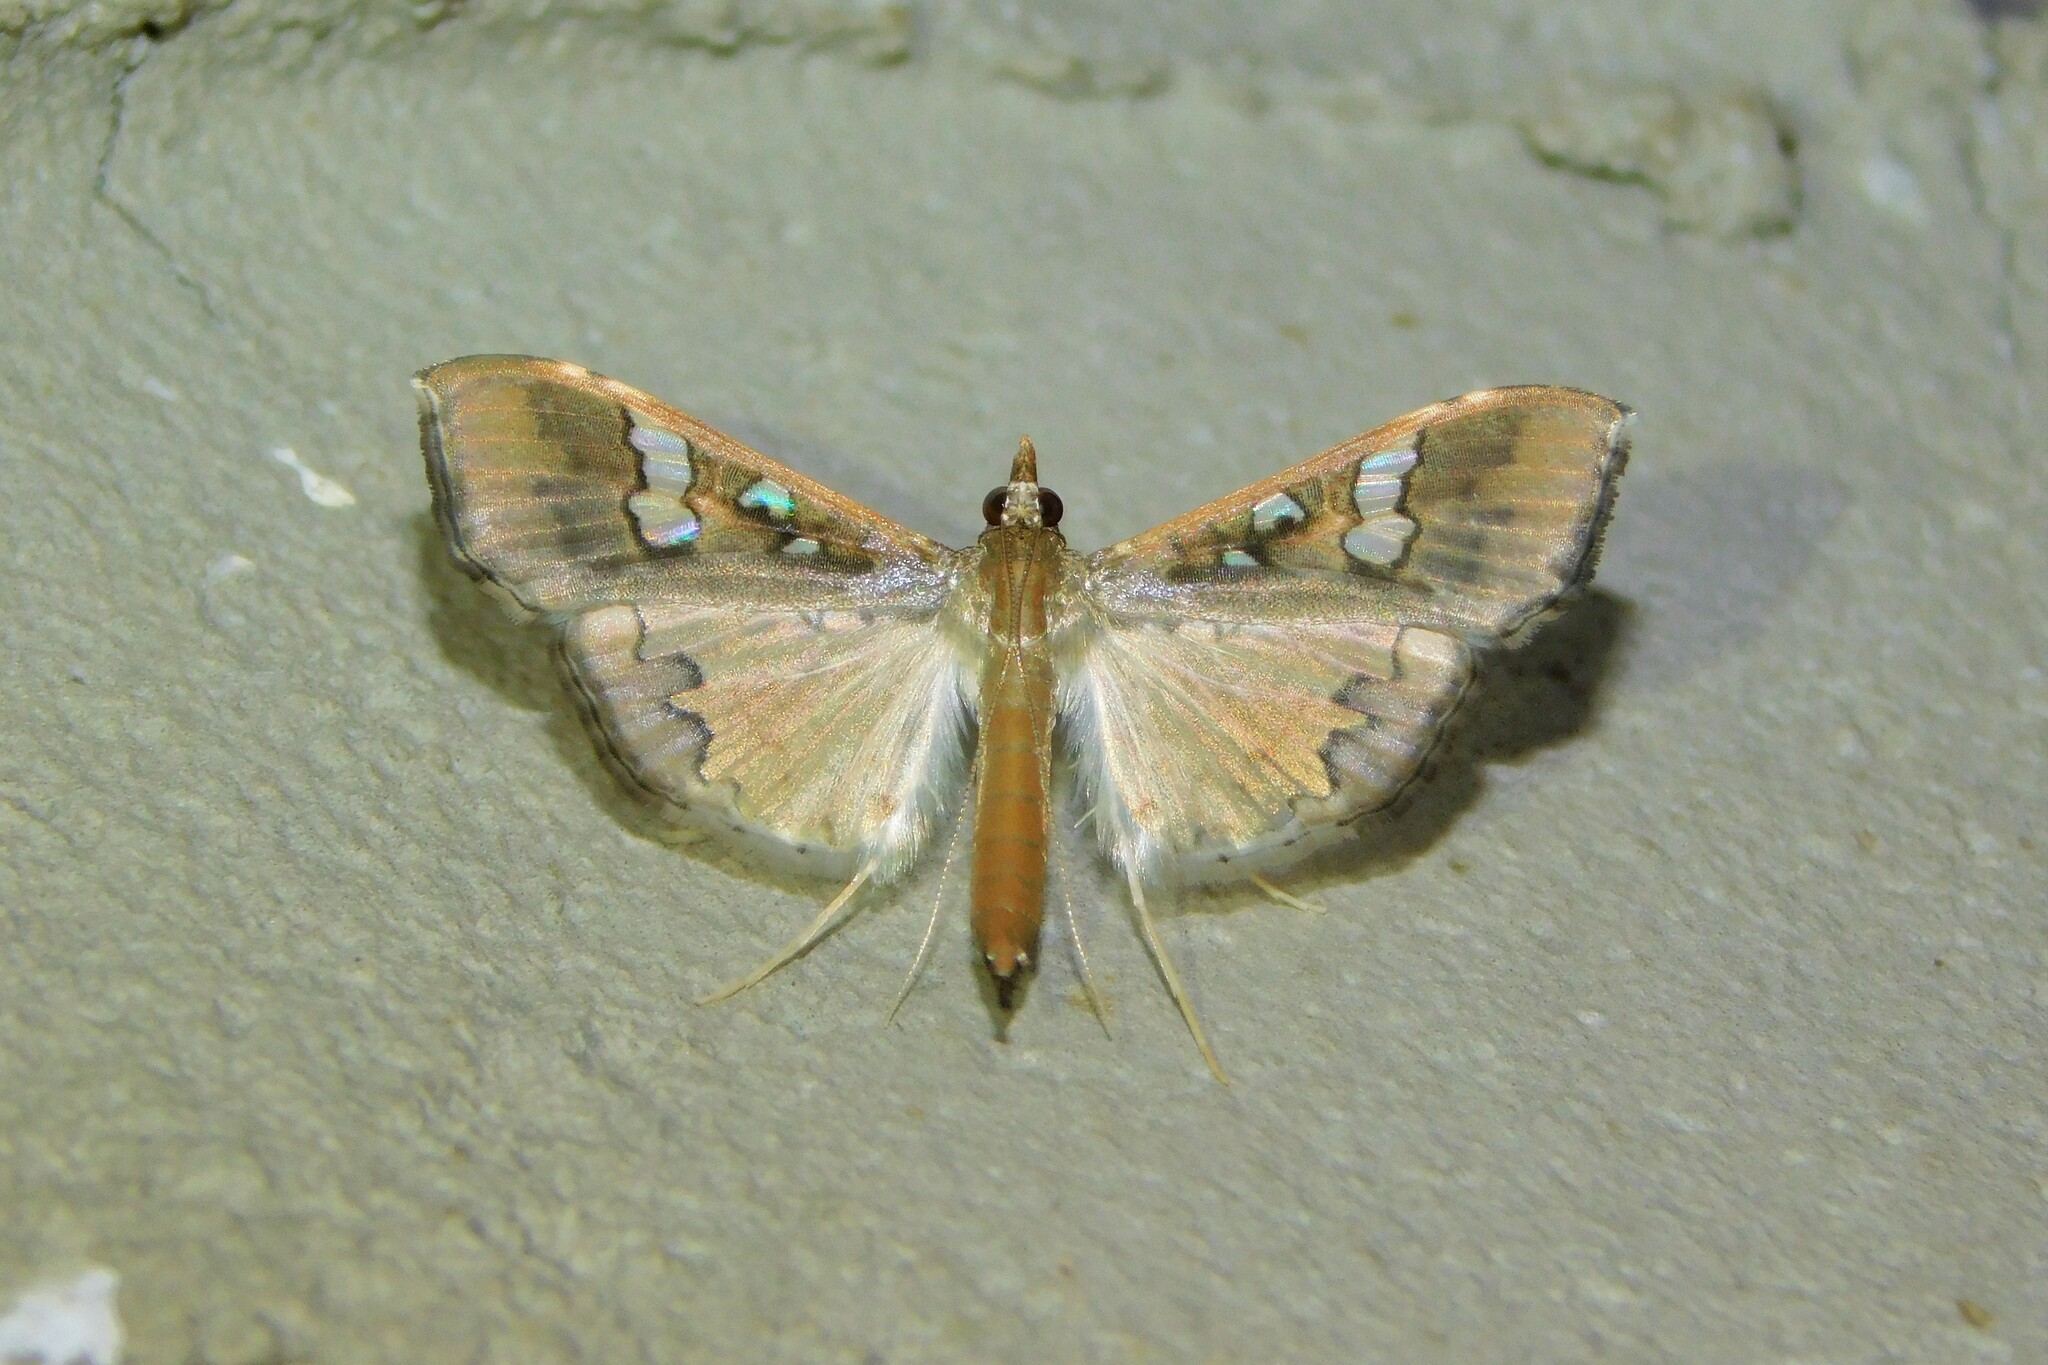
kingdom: Animalia
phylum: Arthropoda
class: Insecta
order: Lepidoptera
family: Crambidae
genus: Maruca
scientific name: Maruca vitrata
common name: Maruca pod borer
